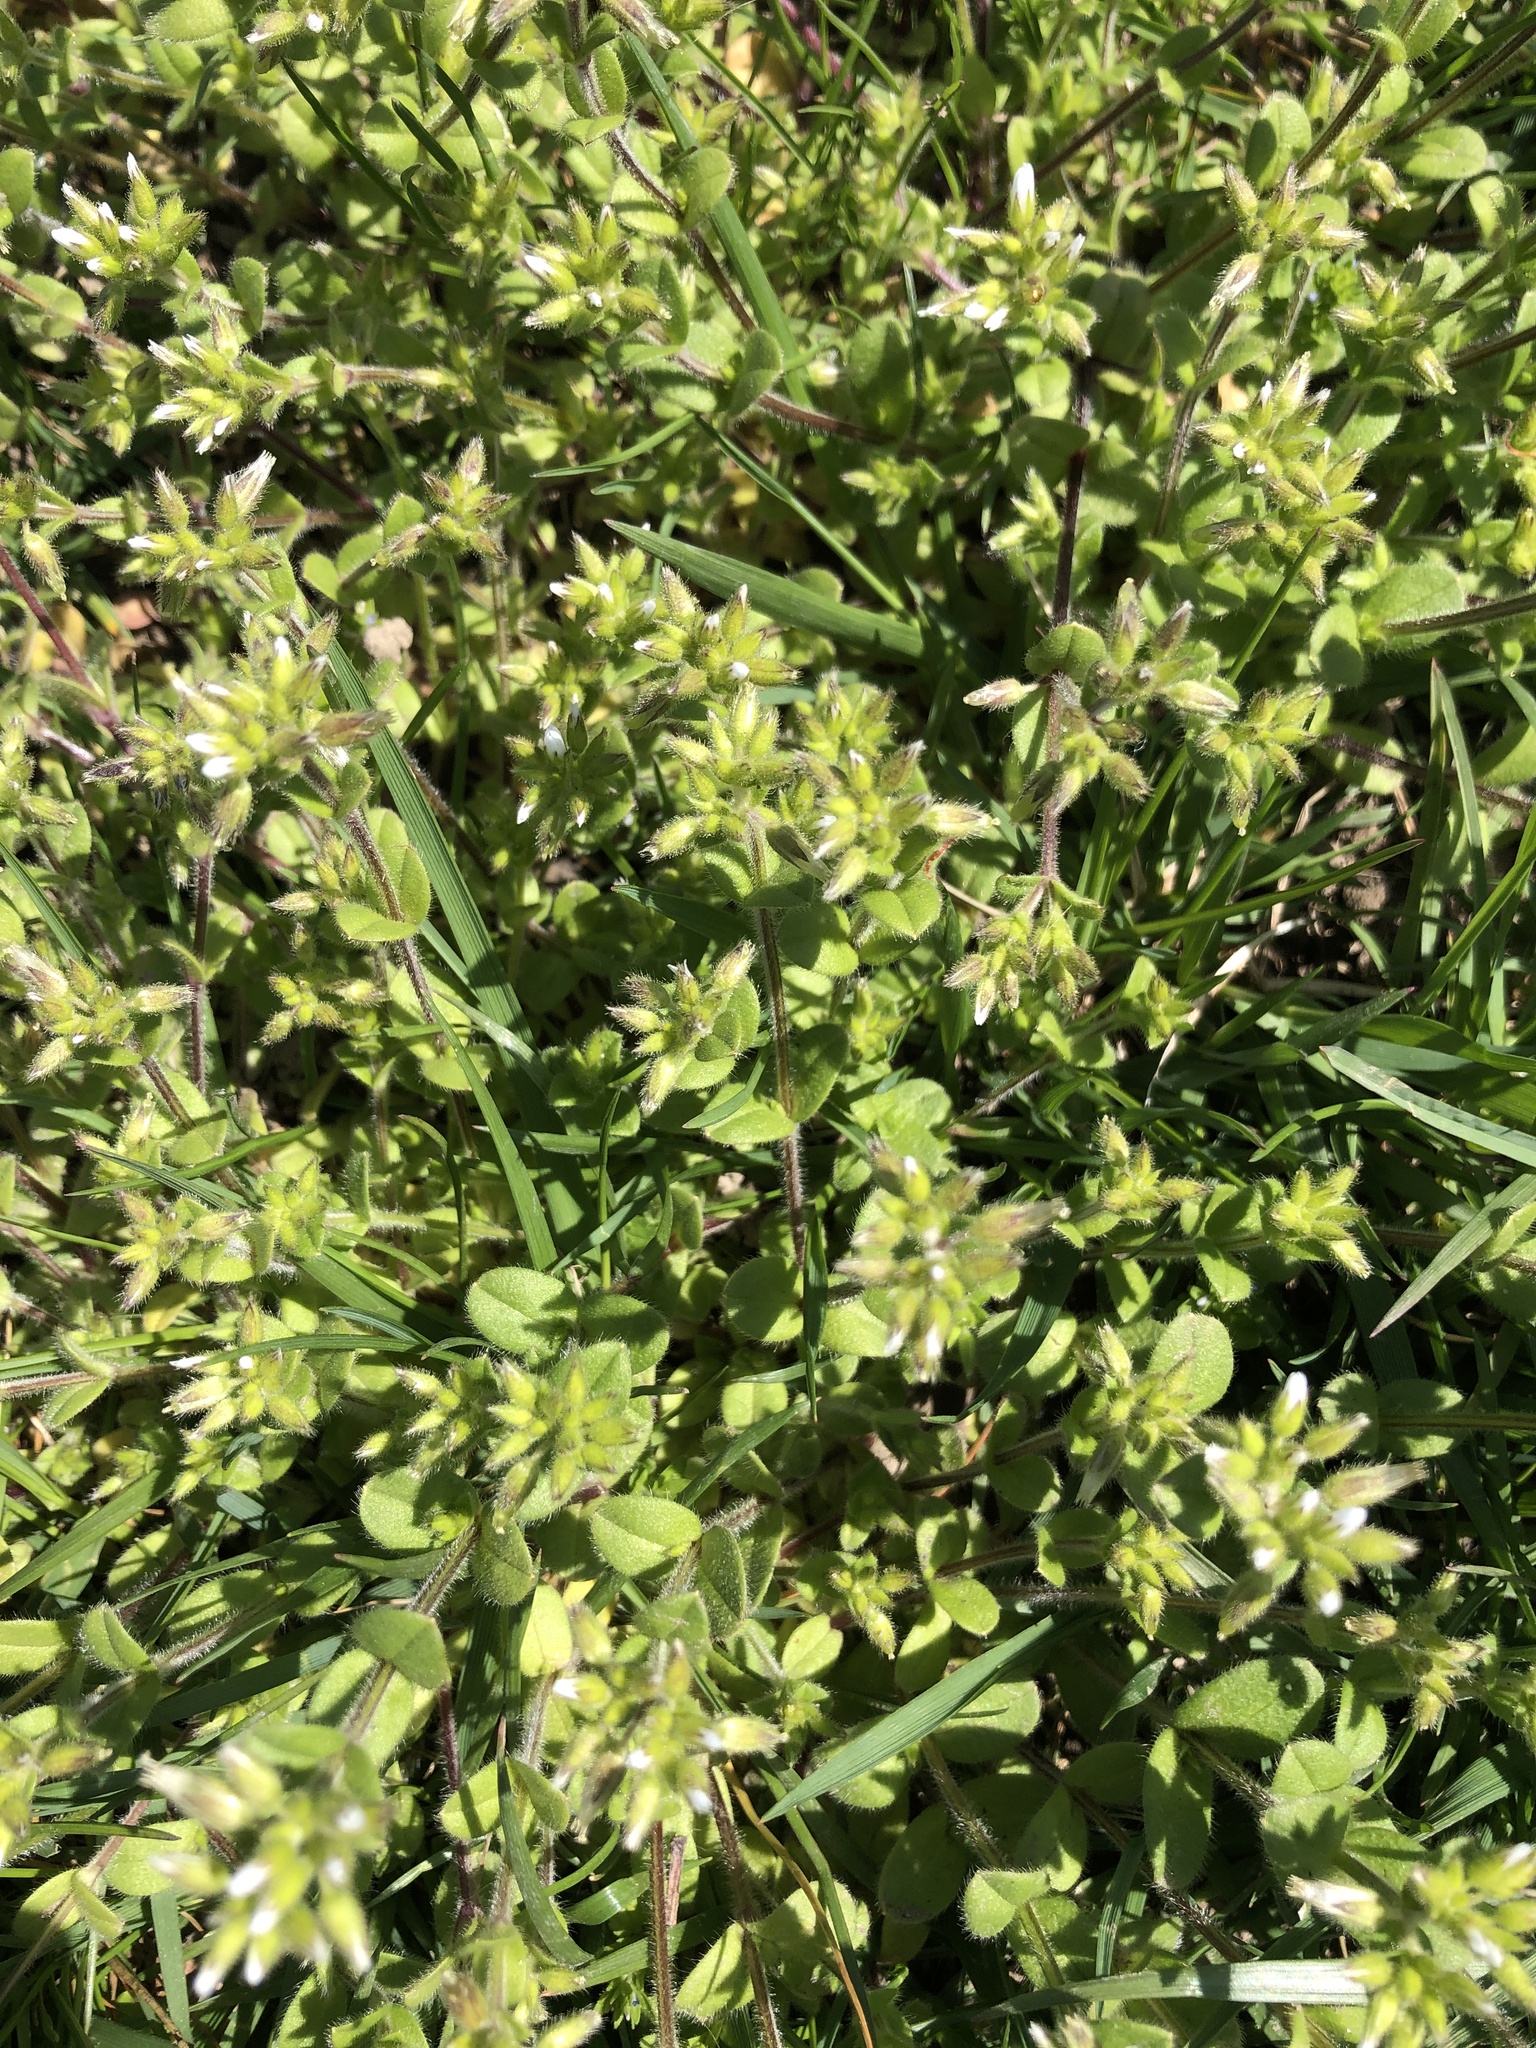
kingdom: Plantae
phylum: Tracheophyta
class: Magnoliopsida
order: Caryophyllales
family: Caryophyllaceae
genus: Cerastium
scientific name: Cerastium glomeratum
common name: Sticky chickweed
